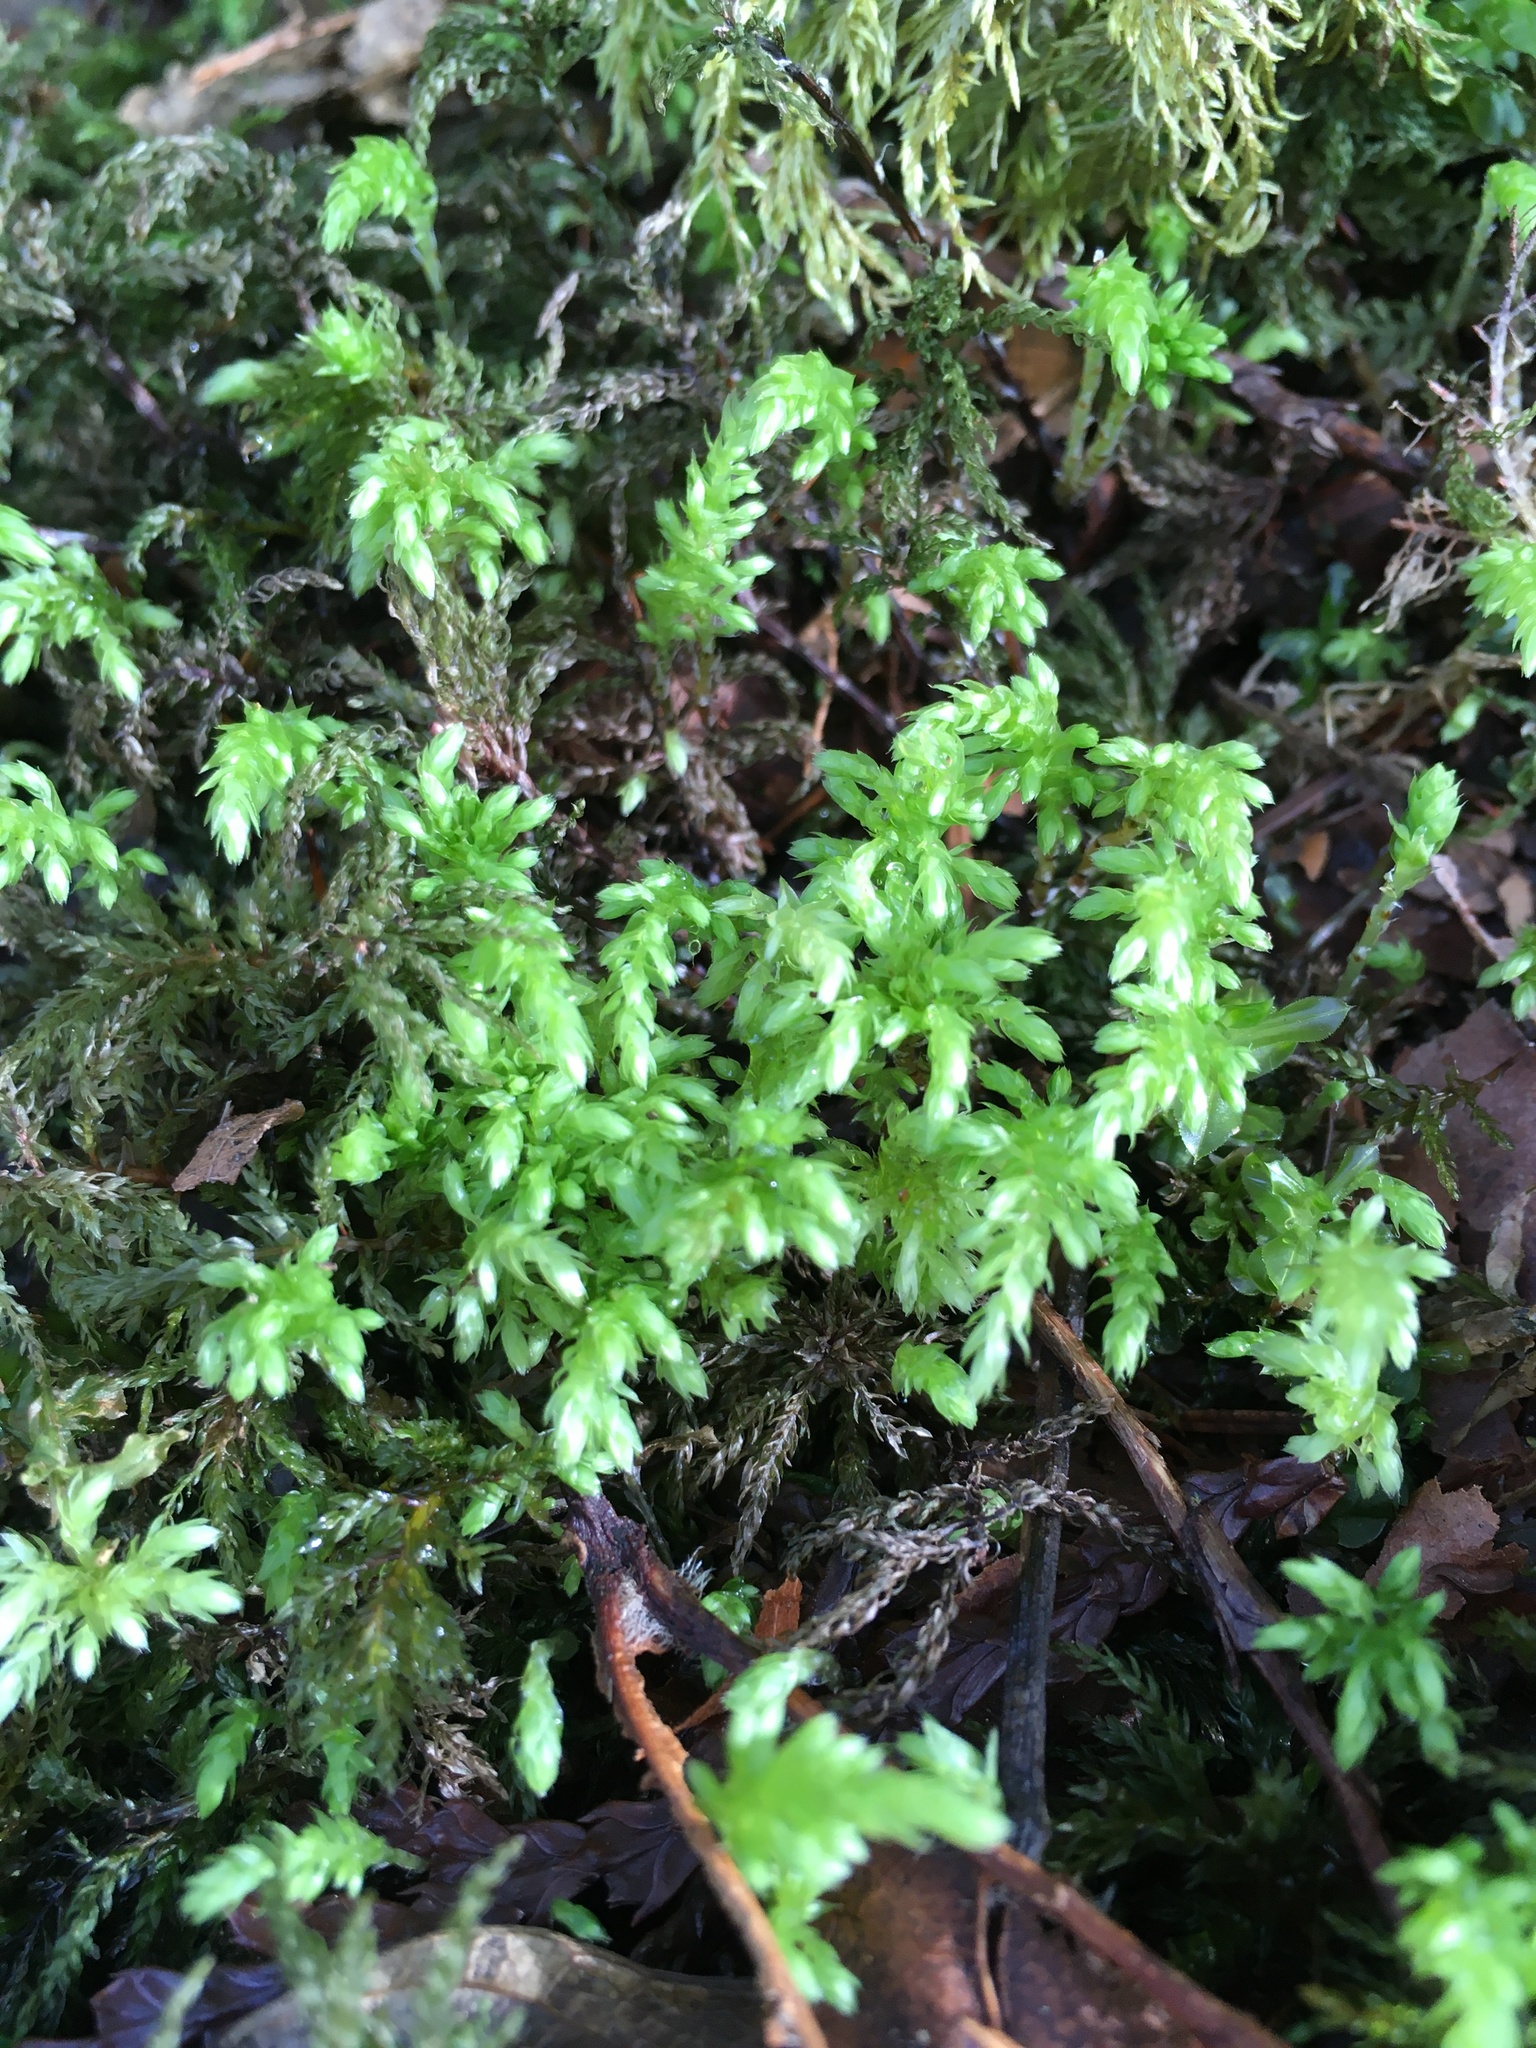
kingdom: Plantae
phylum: Bryophyta
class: Bryopsida
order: Bryales
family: Mniaceae
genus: Leucolepis
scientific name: Leucolepis acanthoneura
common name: Leucolepis umbrella moss
